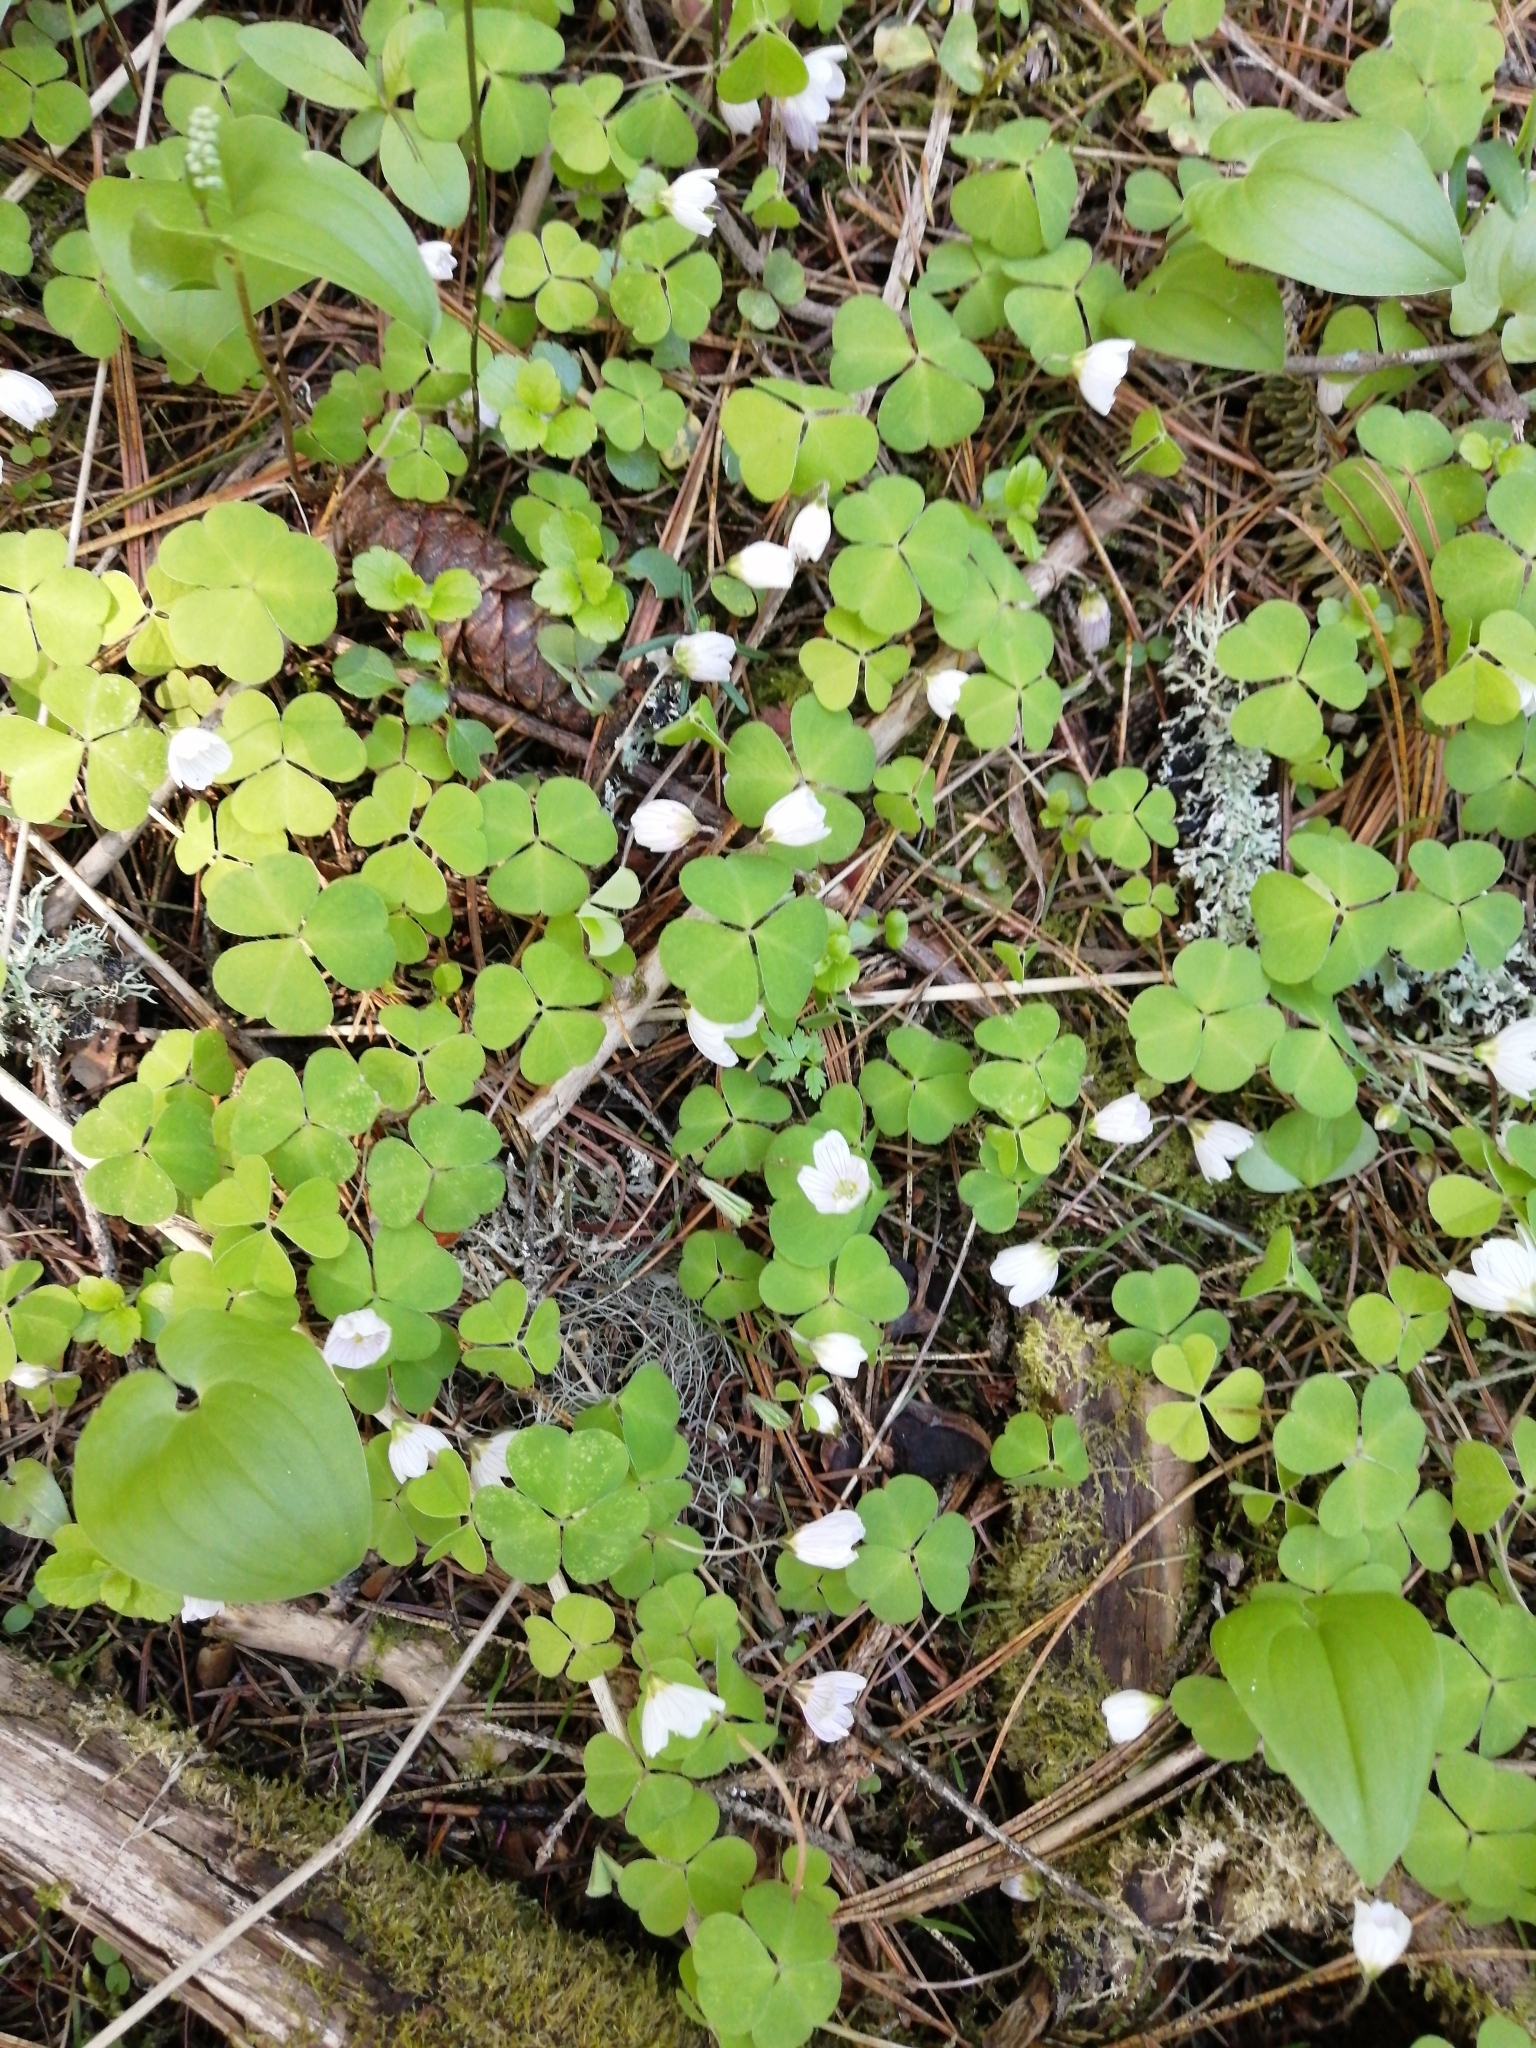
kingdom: Plantae
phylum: Tracheophyta
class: Magnoliopsida
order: Oxalidales
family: Oxalidaceae
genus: Oxalis
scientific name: Oxalis acetosella
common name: Wood-sorrel
